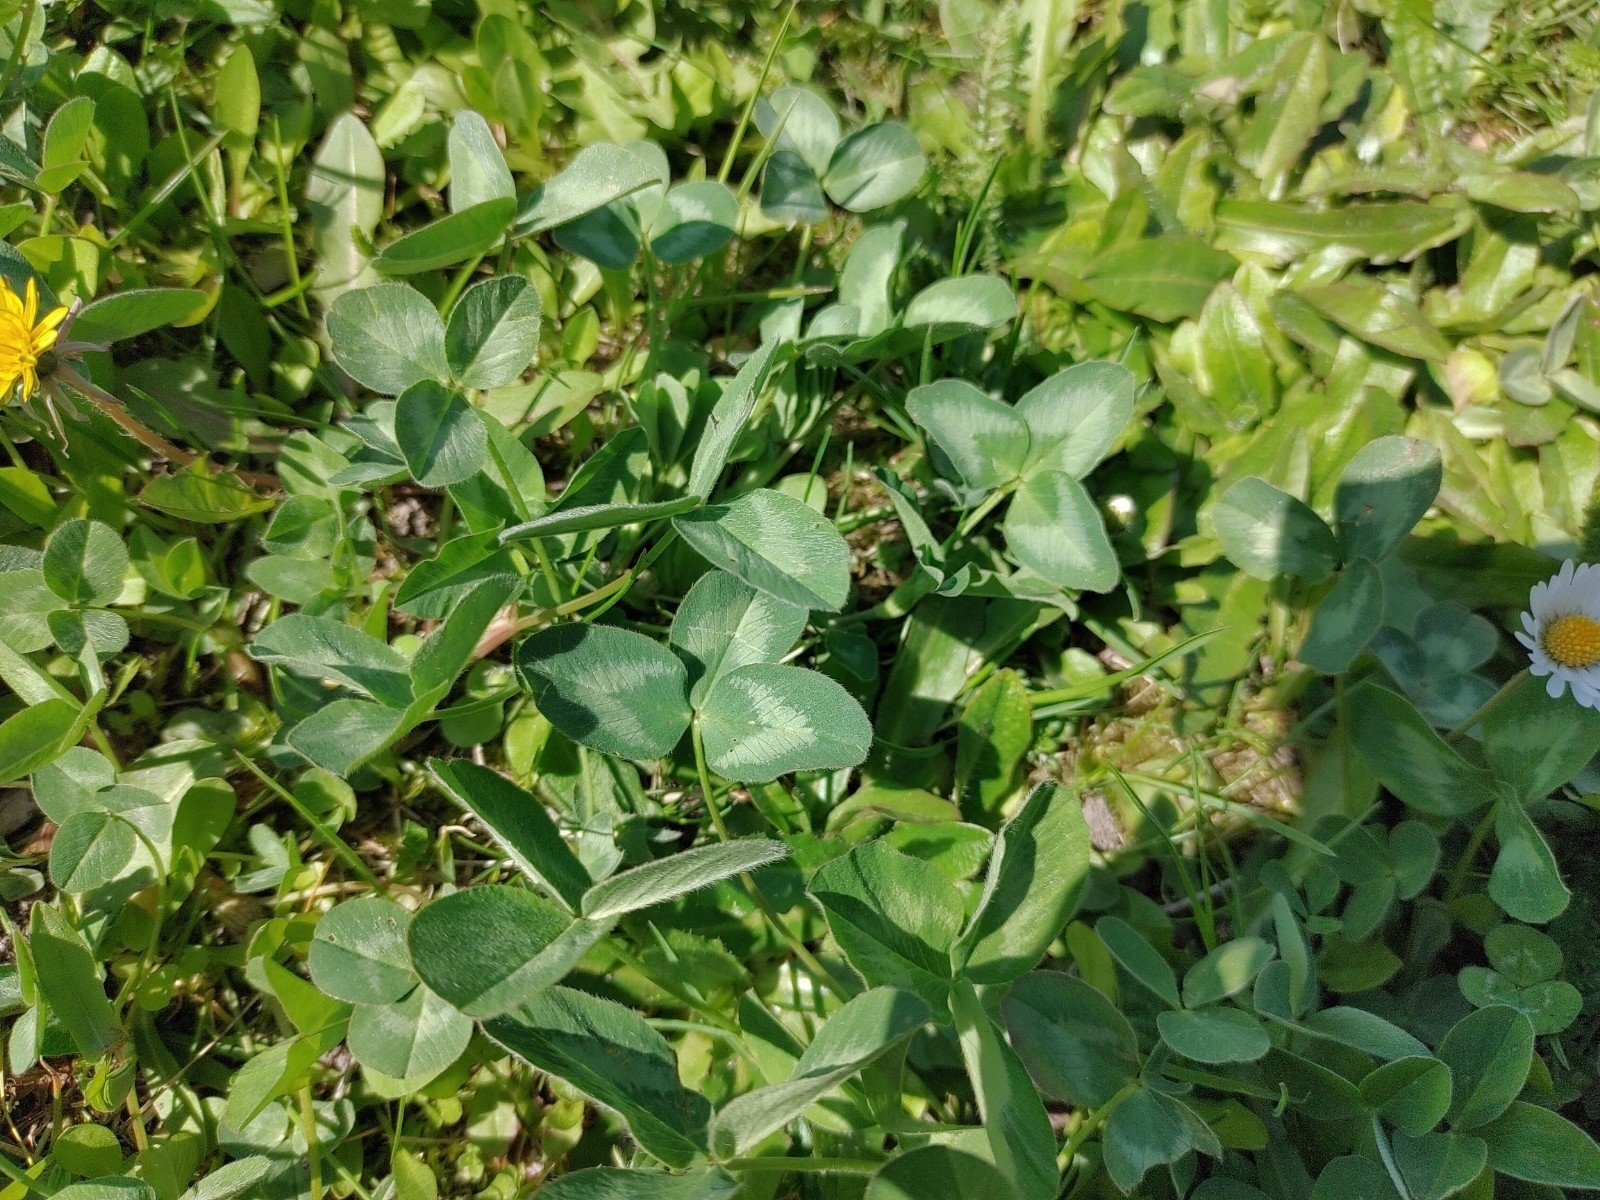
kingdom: Plantae
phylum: Tracheophyta
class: Magnoliopsida
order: Fabales
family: Fabaceae
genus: Trifolium
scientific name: Trifolium pratense
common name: Red clover
